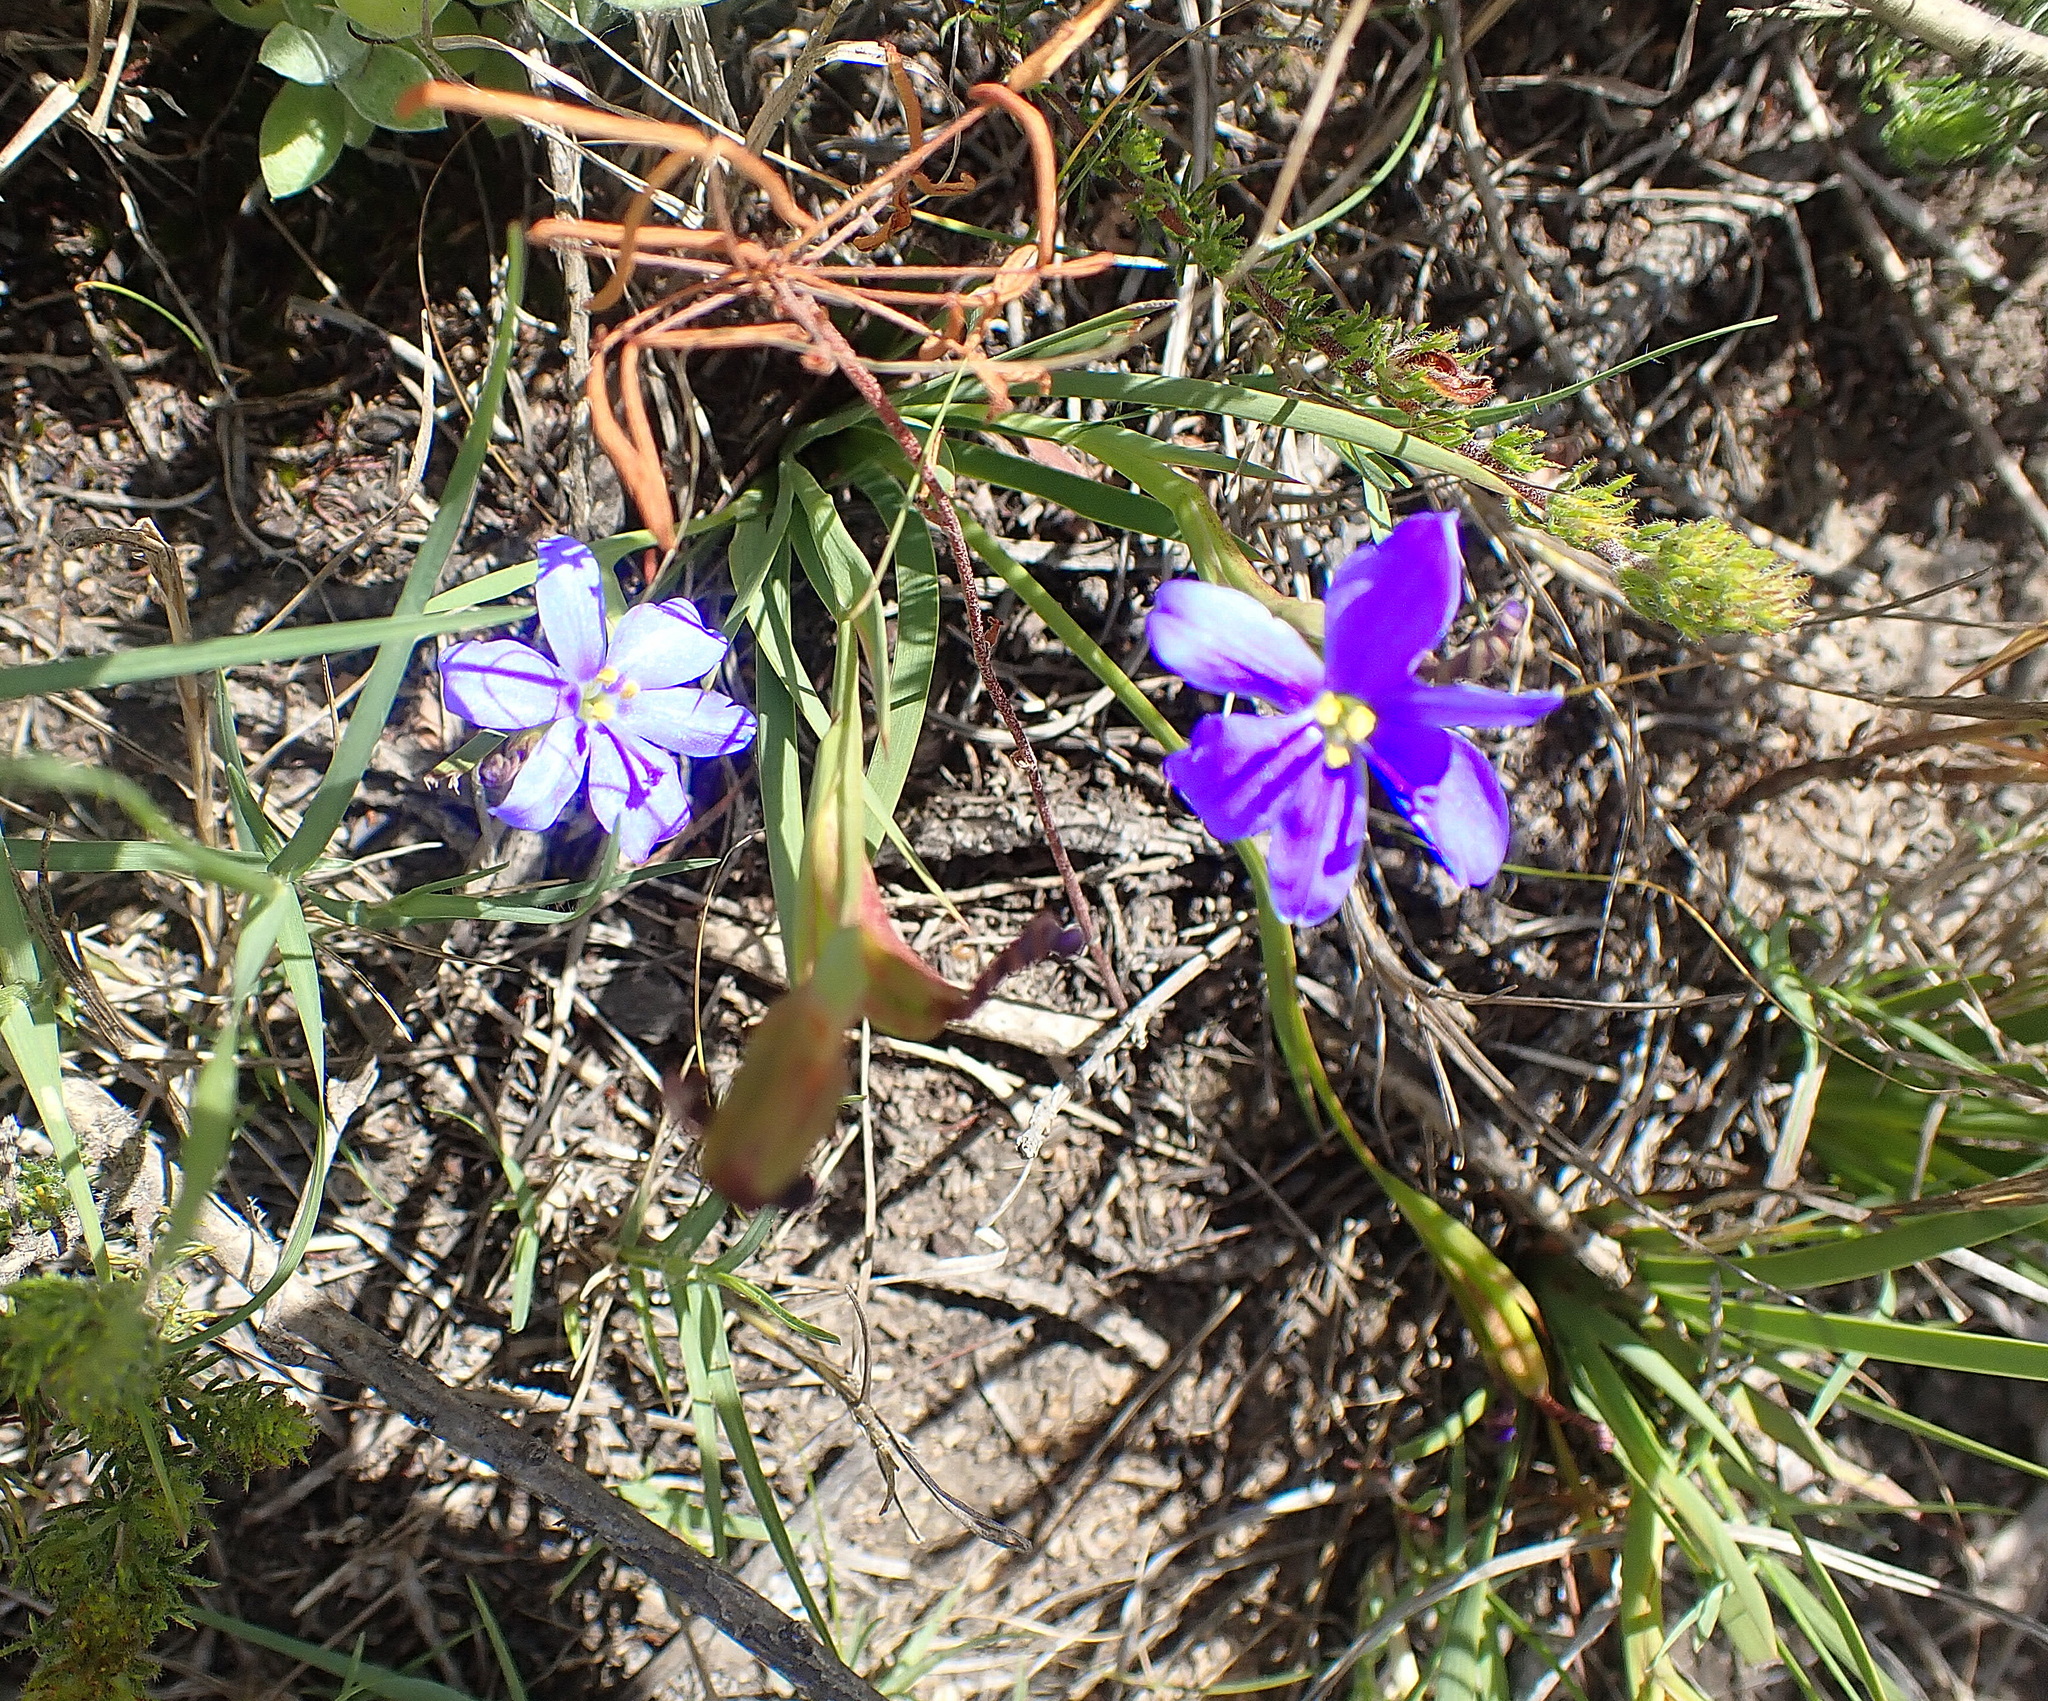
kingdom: Plantae
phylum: Tracheophyta
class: Liliopsida
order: Asparagales
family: Iridaceae
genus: Aristea
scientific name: Aristea pusilla
